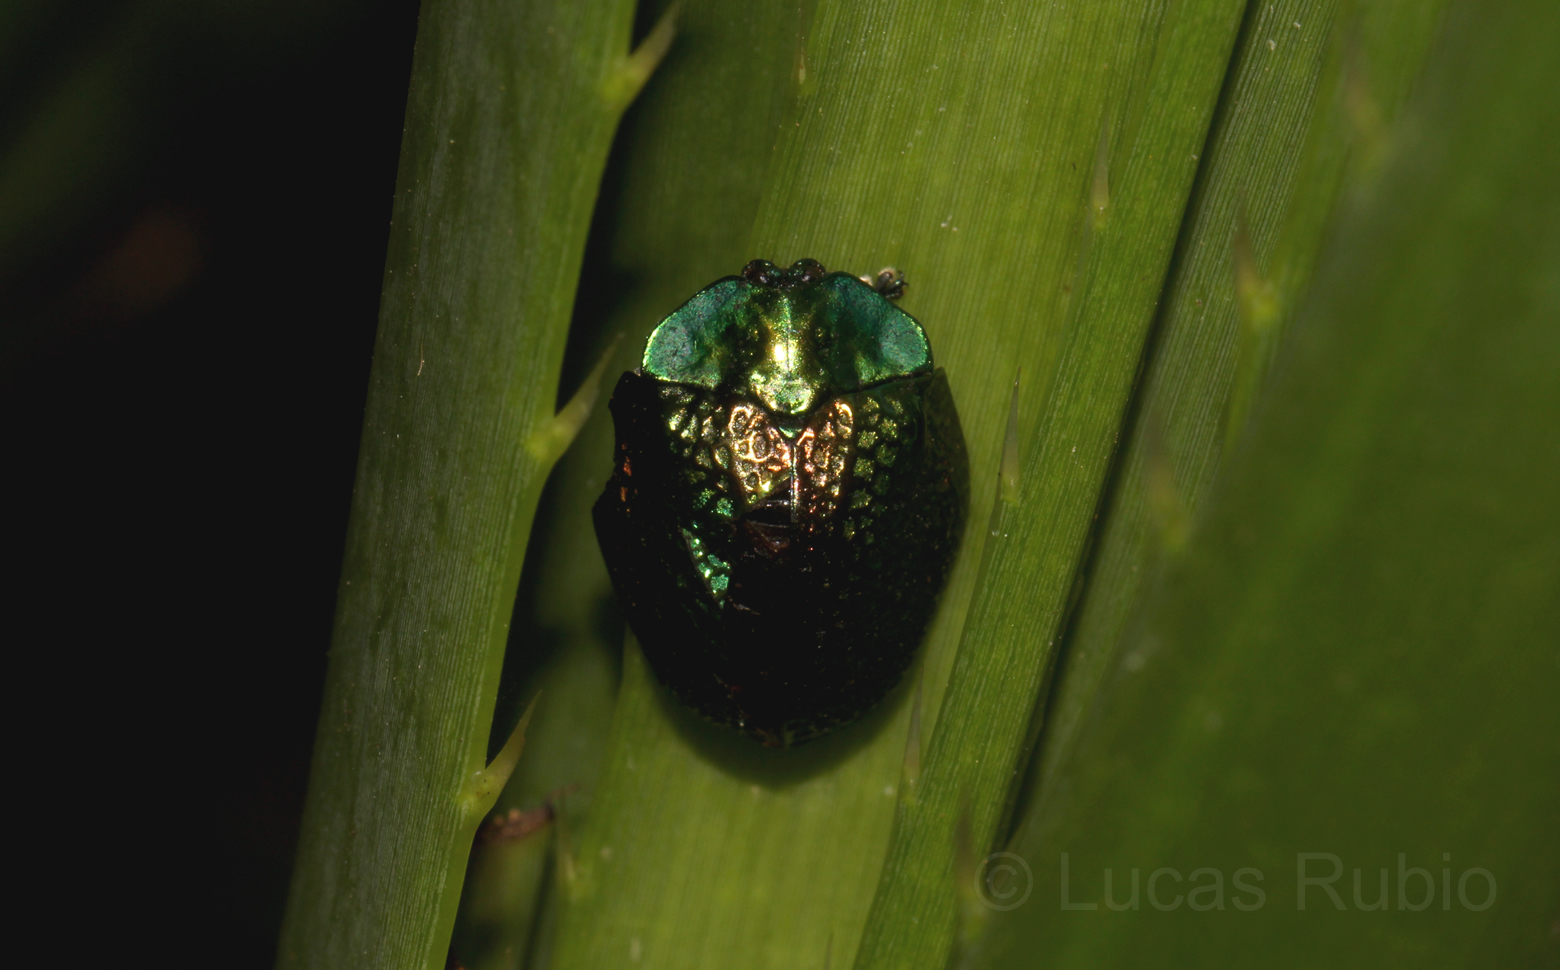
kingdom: Animalia
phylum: Arthropoda
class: Insecta
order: Coleoptera
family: Chrysomelidae
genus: Stolas
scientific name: Stolas festiva
